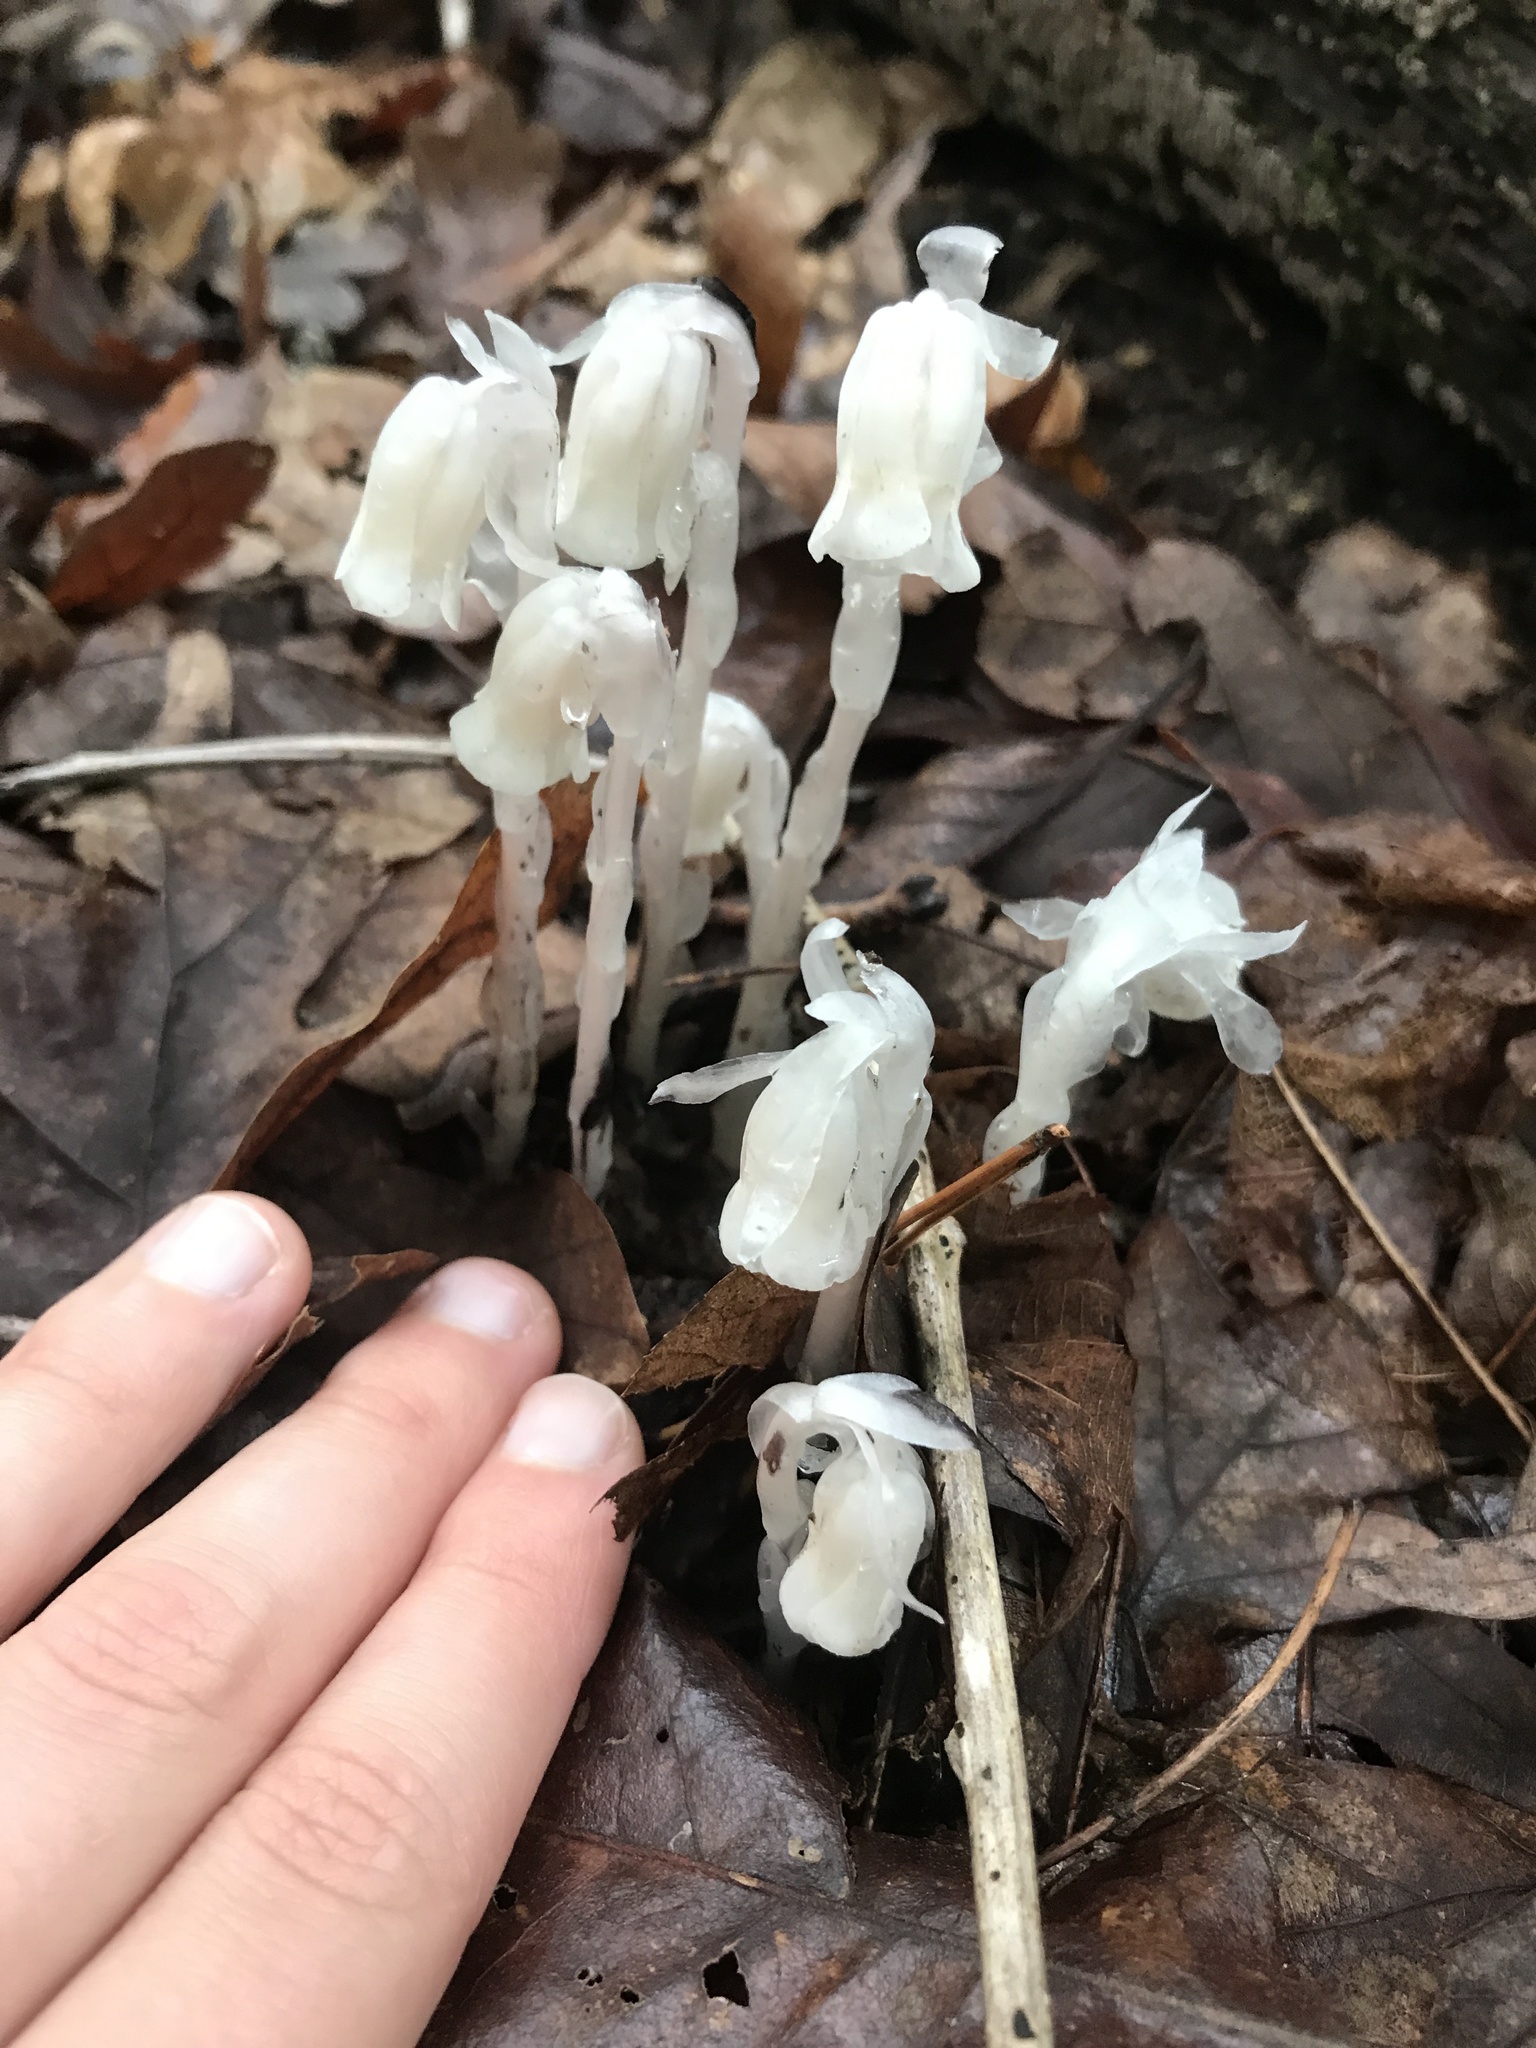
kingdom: Plantae
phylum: Tracheophyta
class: Magnoliopsida
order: Ericales
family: Ericaceae
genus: Monotropa
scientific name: Monotropa uniflora
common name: Convulsion root
